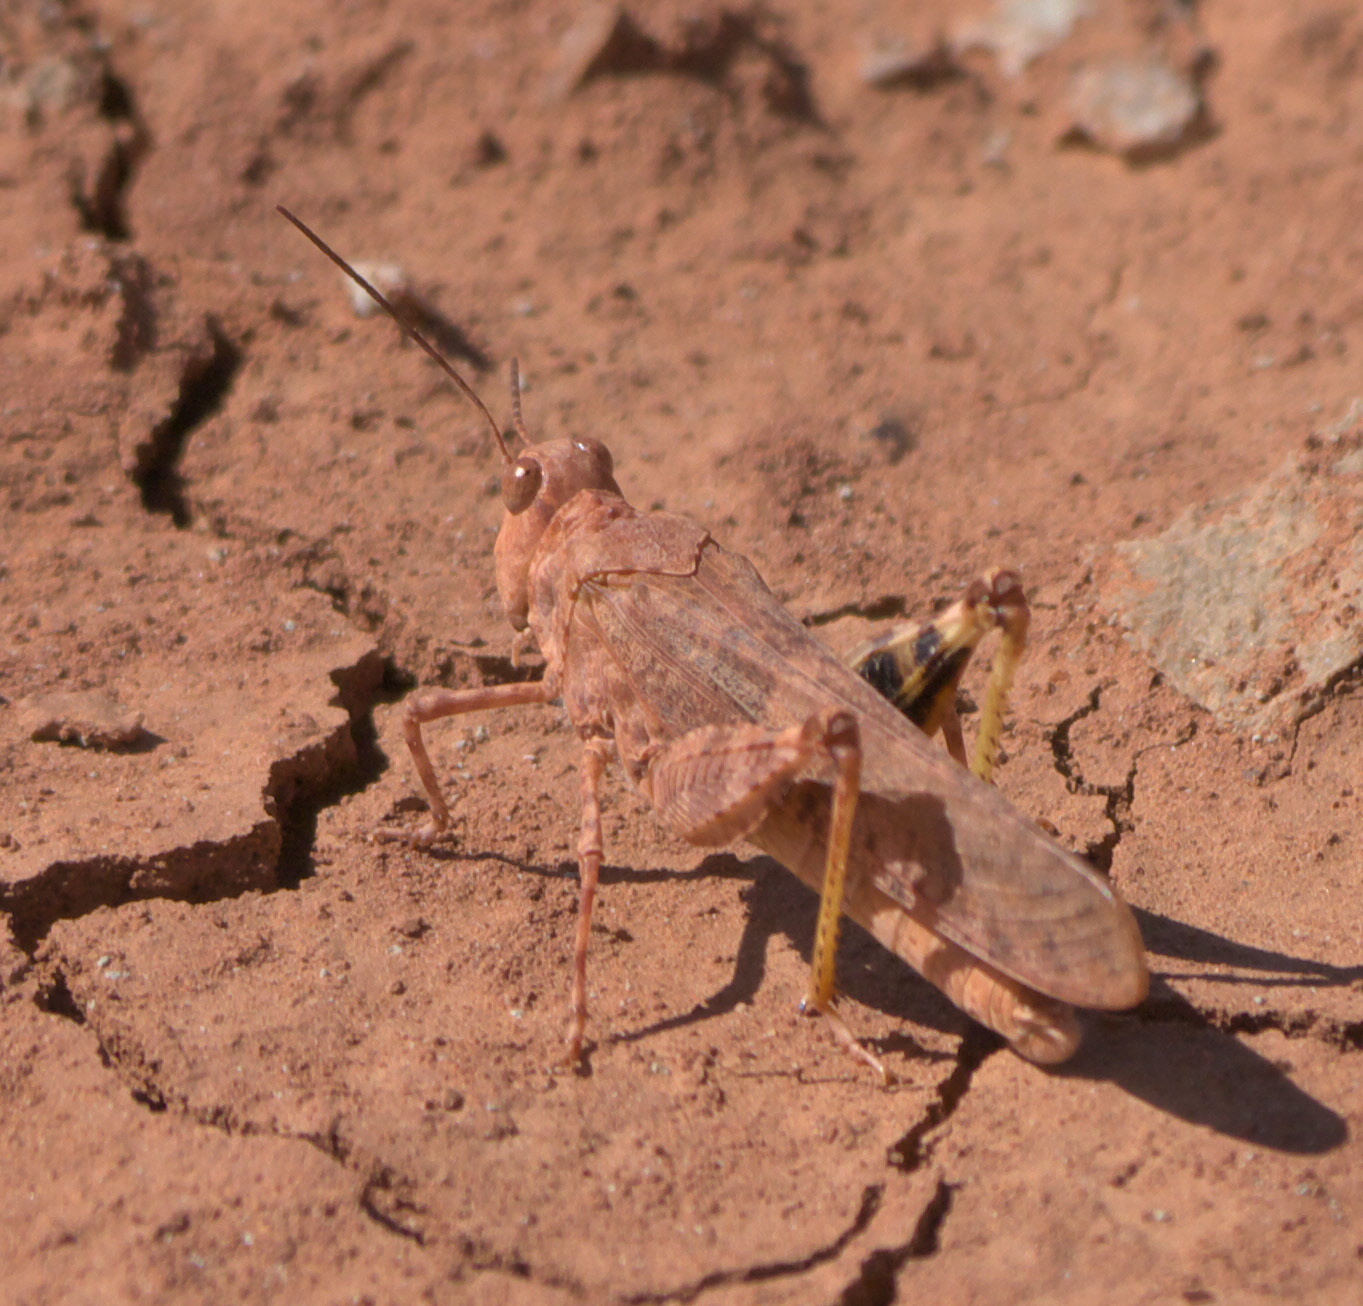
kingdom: Animalia
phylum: Arthropoda
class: Insecta
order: Orthoptera
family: Acrididae
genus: Circotettix
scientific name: Circotettix rabula
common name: Wrangler grasshopper
